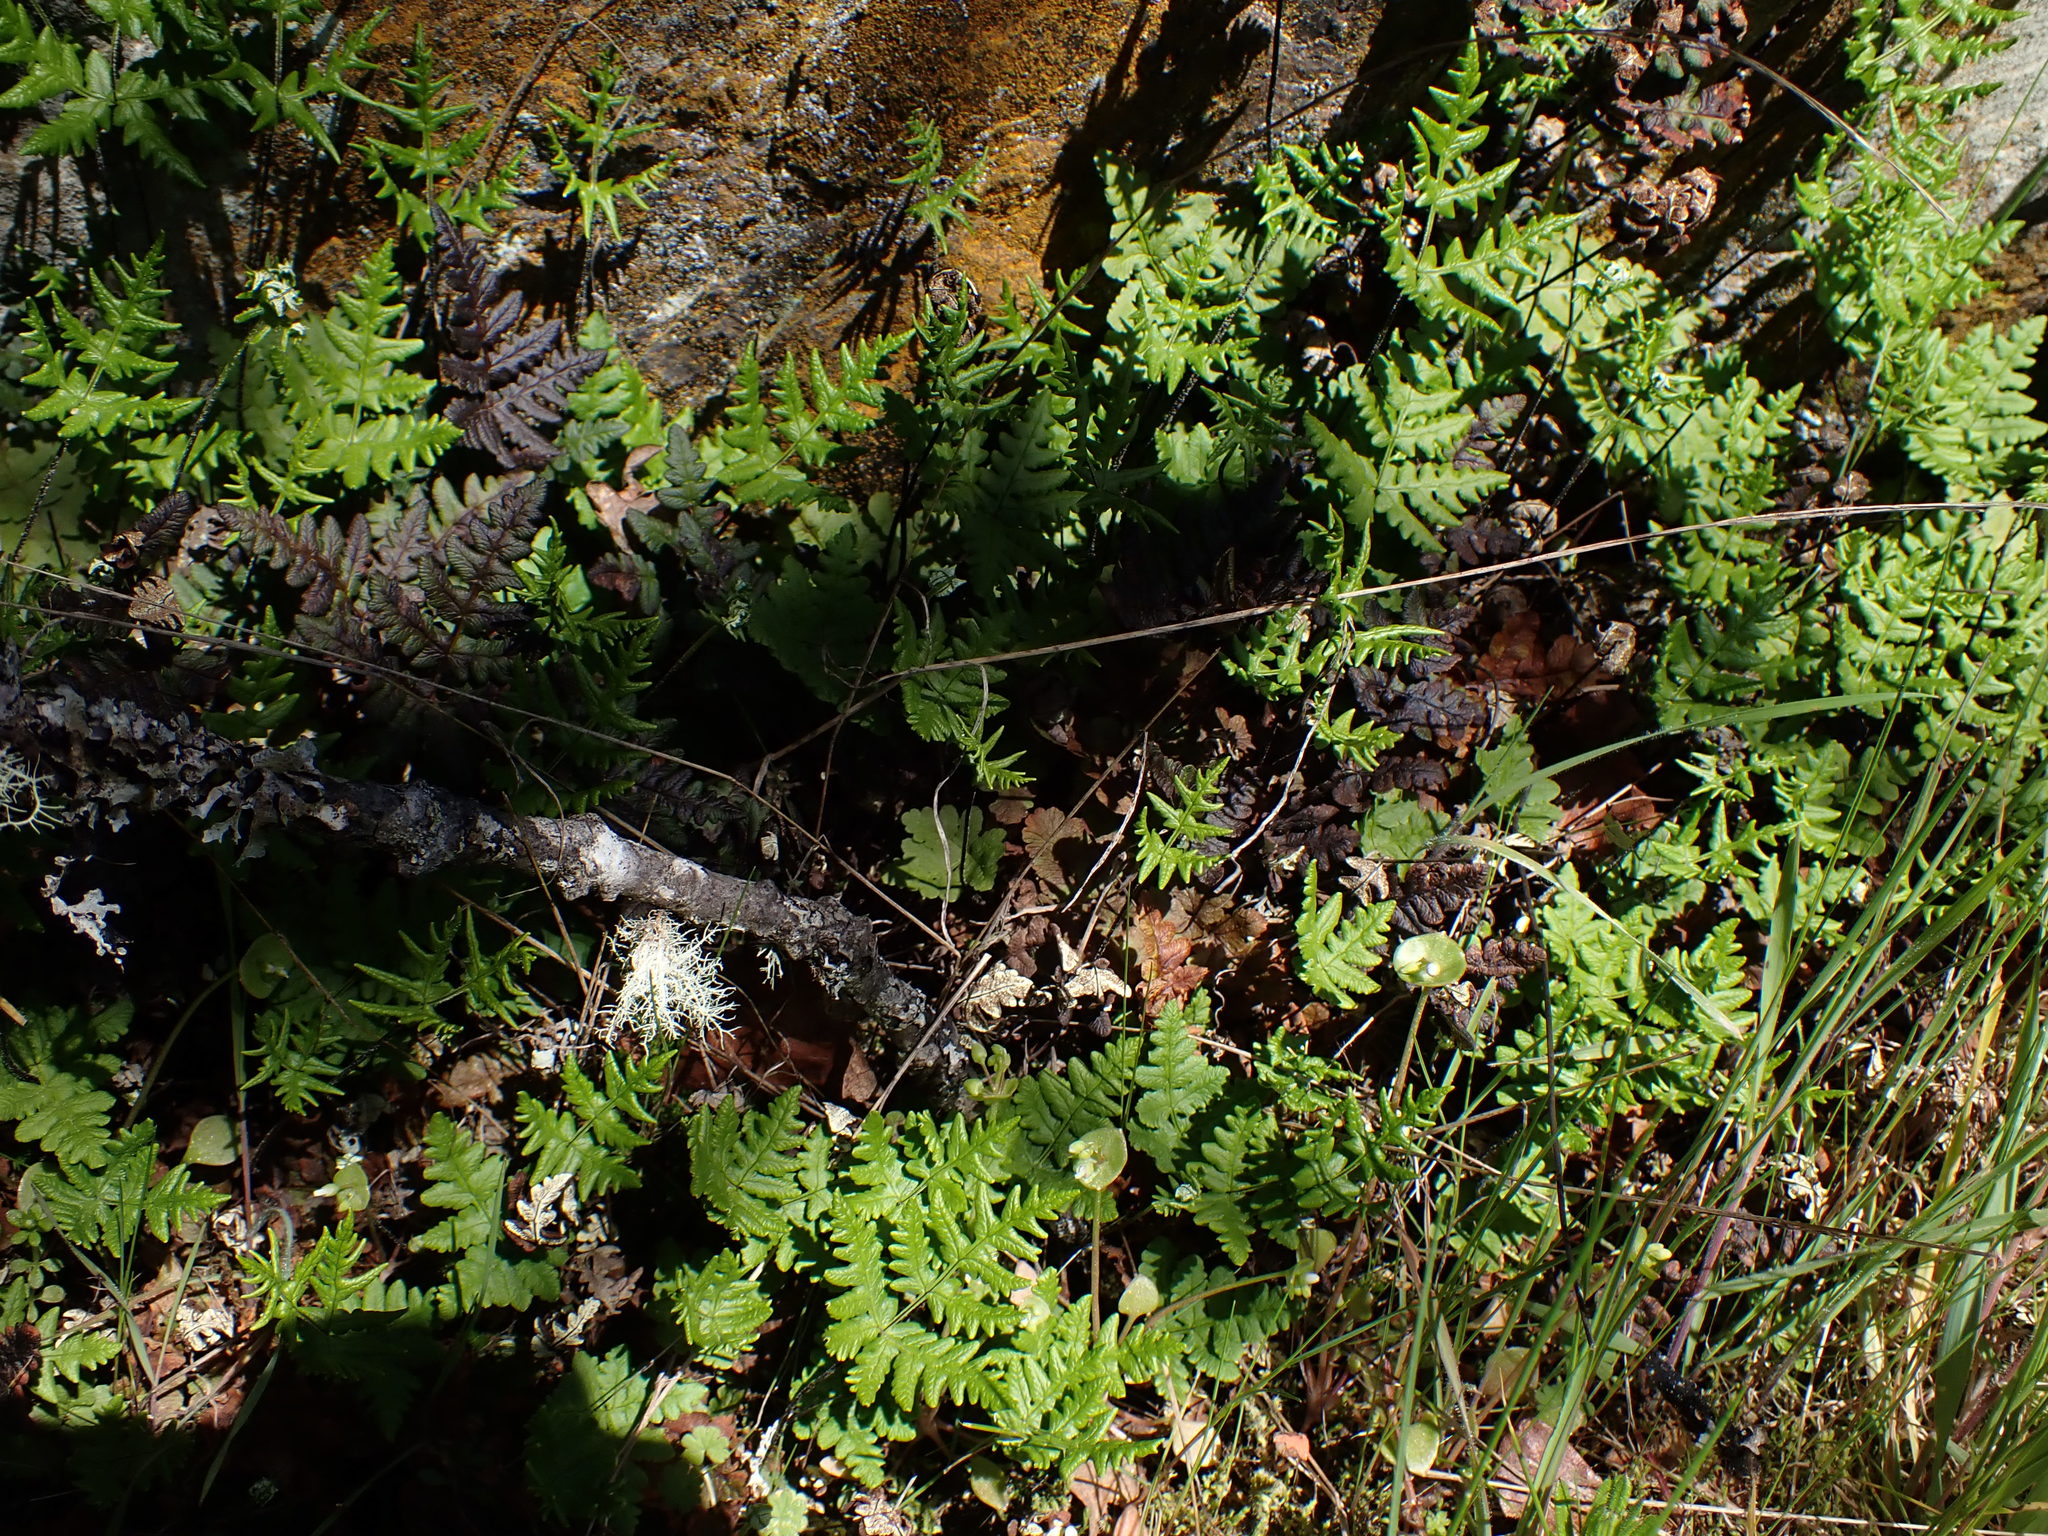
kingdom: Plantae
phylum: Tracheophyta
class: Polypodiopsida
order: Polypodiales
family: Pteridaceae
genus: Pentagramma
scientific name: Pentagramma triangularis
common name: Gold fern
